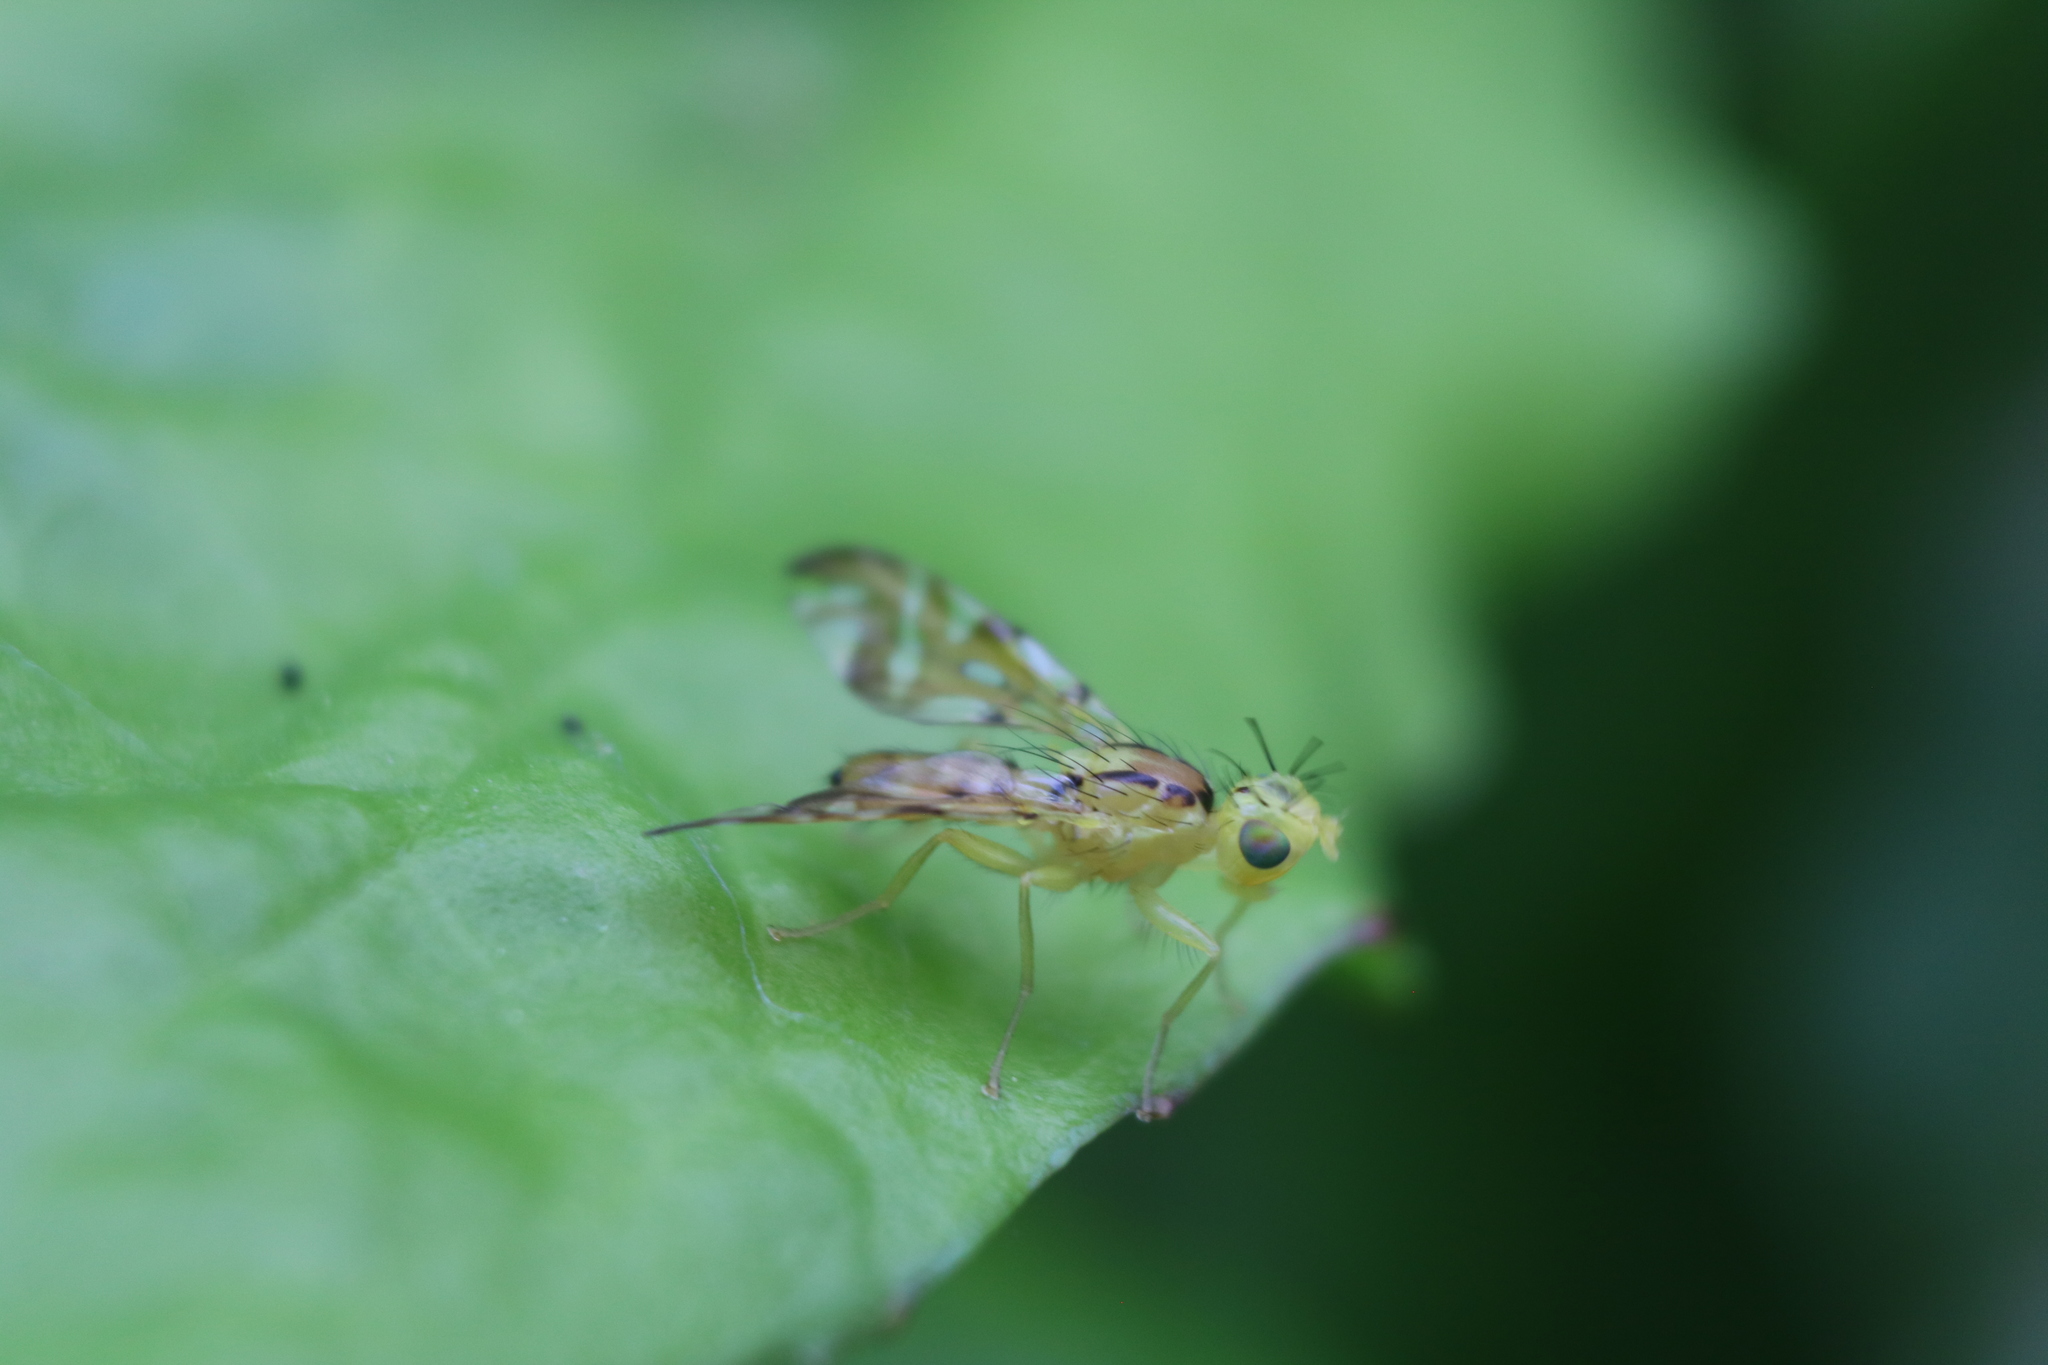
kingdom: Animalia
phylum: Arthropoda
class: Insecta
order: Diptera
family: Tephritidae
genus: Strauzia
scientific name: Strauzia vittigera
